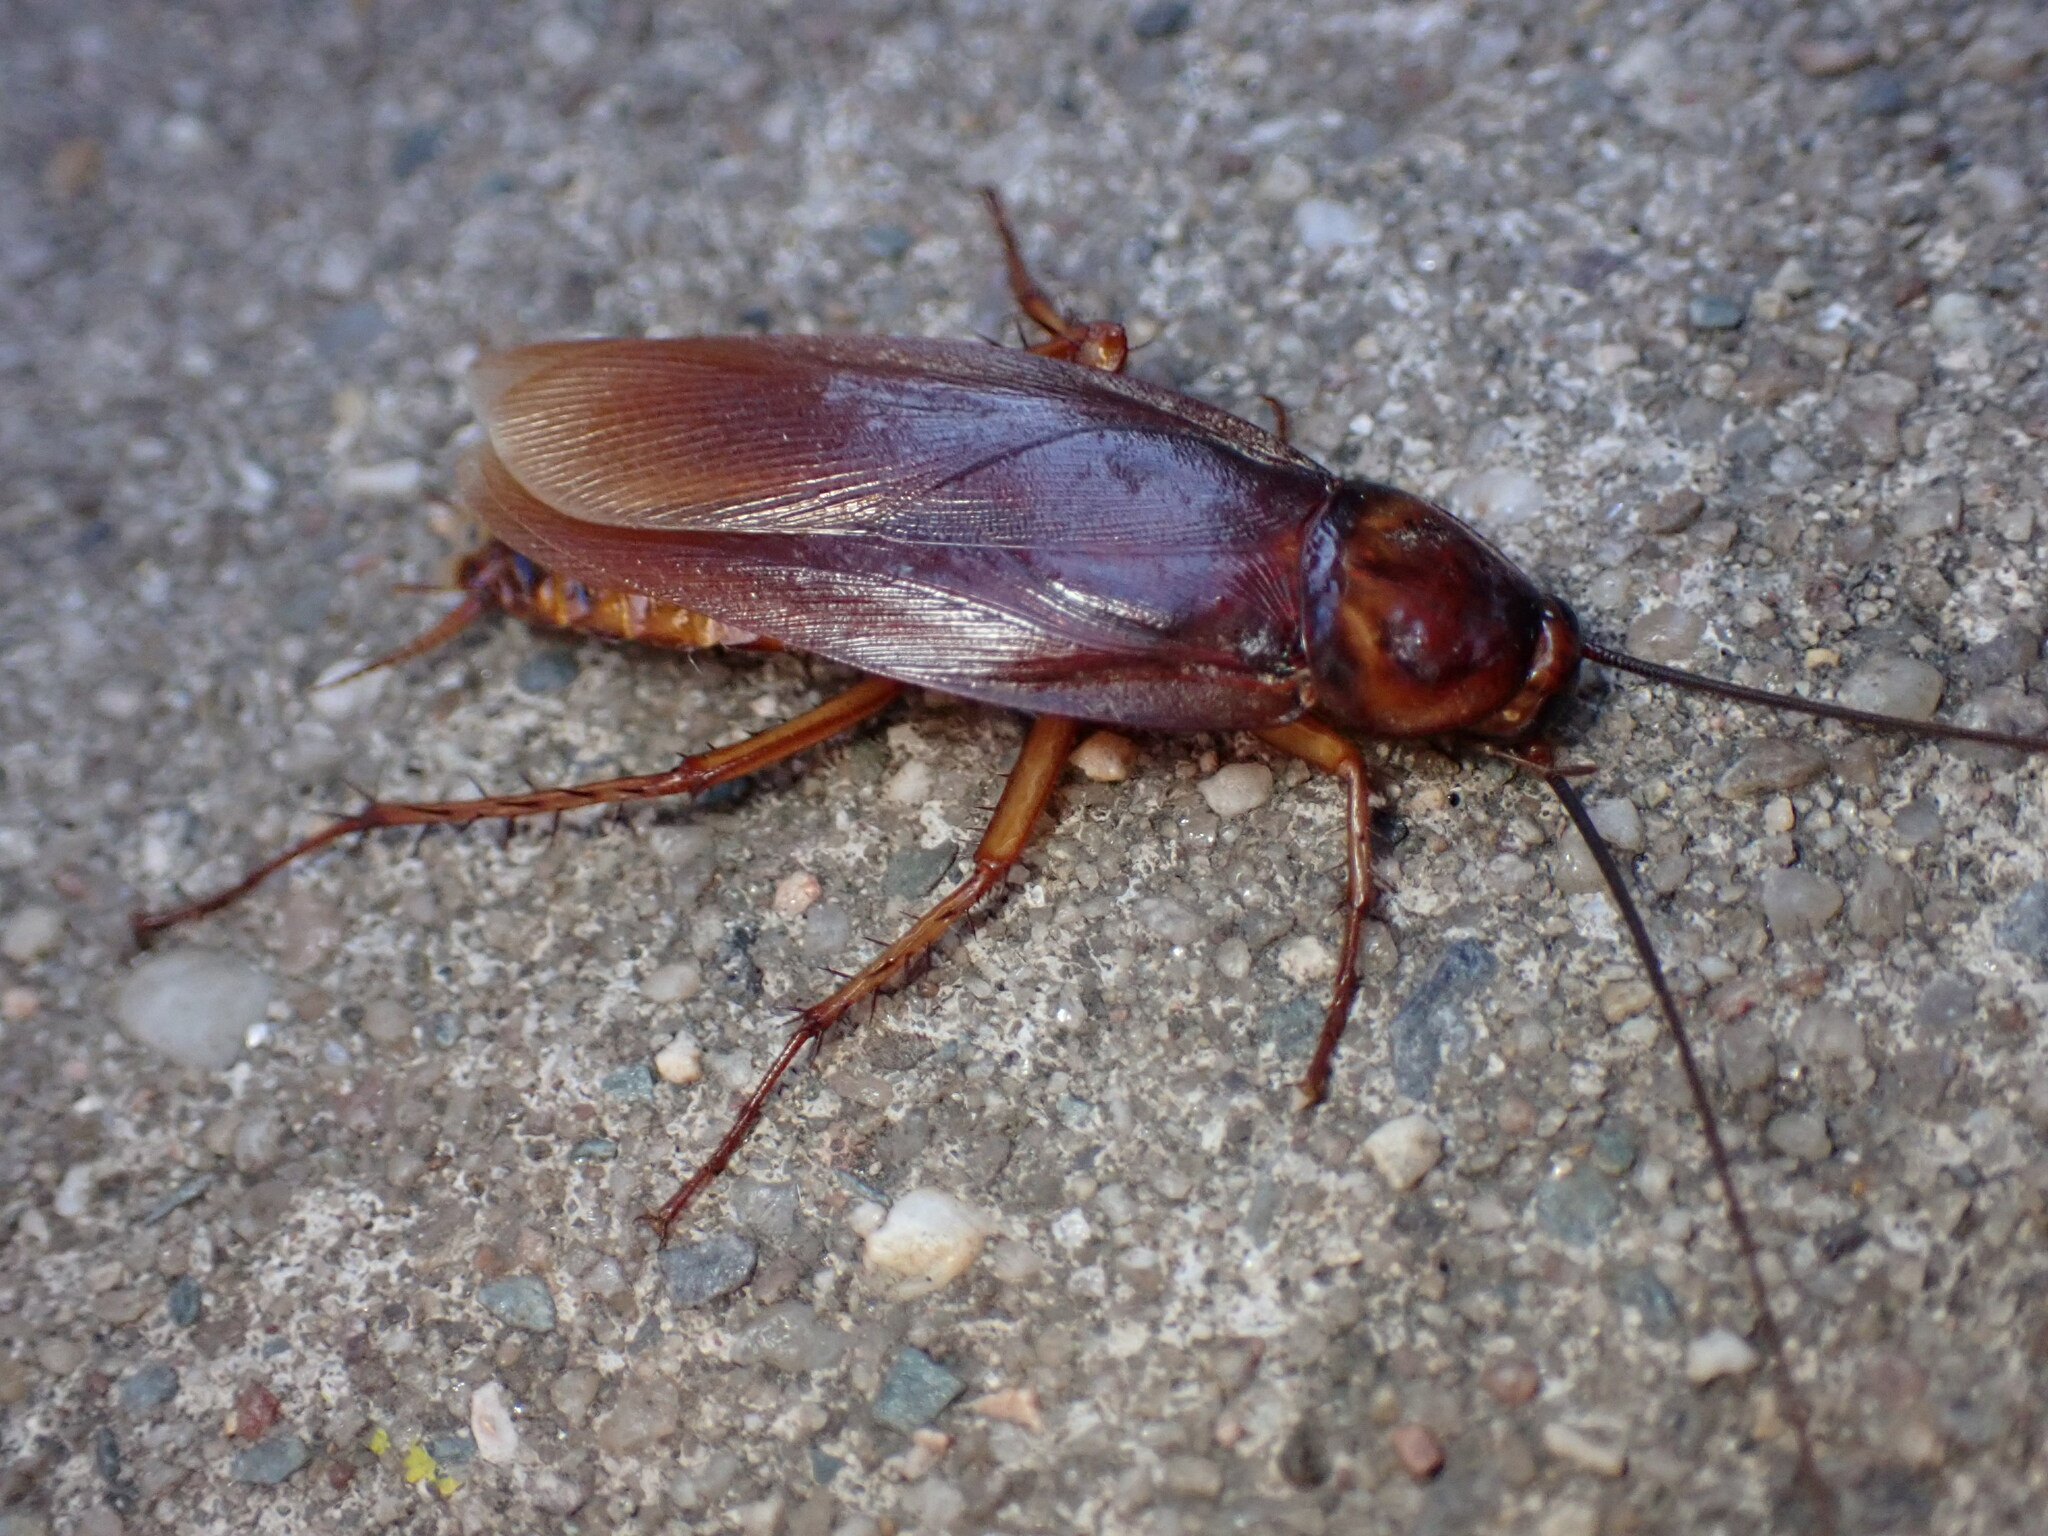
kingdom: Animalia
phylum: Arthropoda
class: Insecta
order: Blattodea
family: Blattidae
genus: Periplaneta
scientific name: Periplaneta americana
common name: American cockroach
